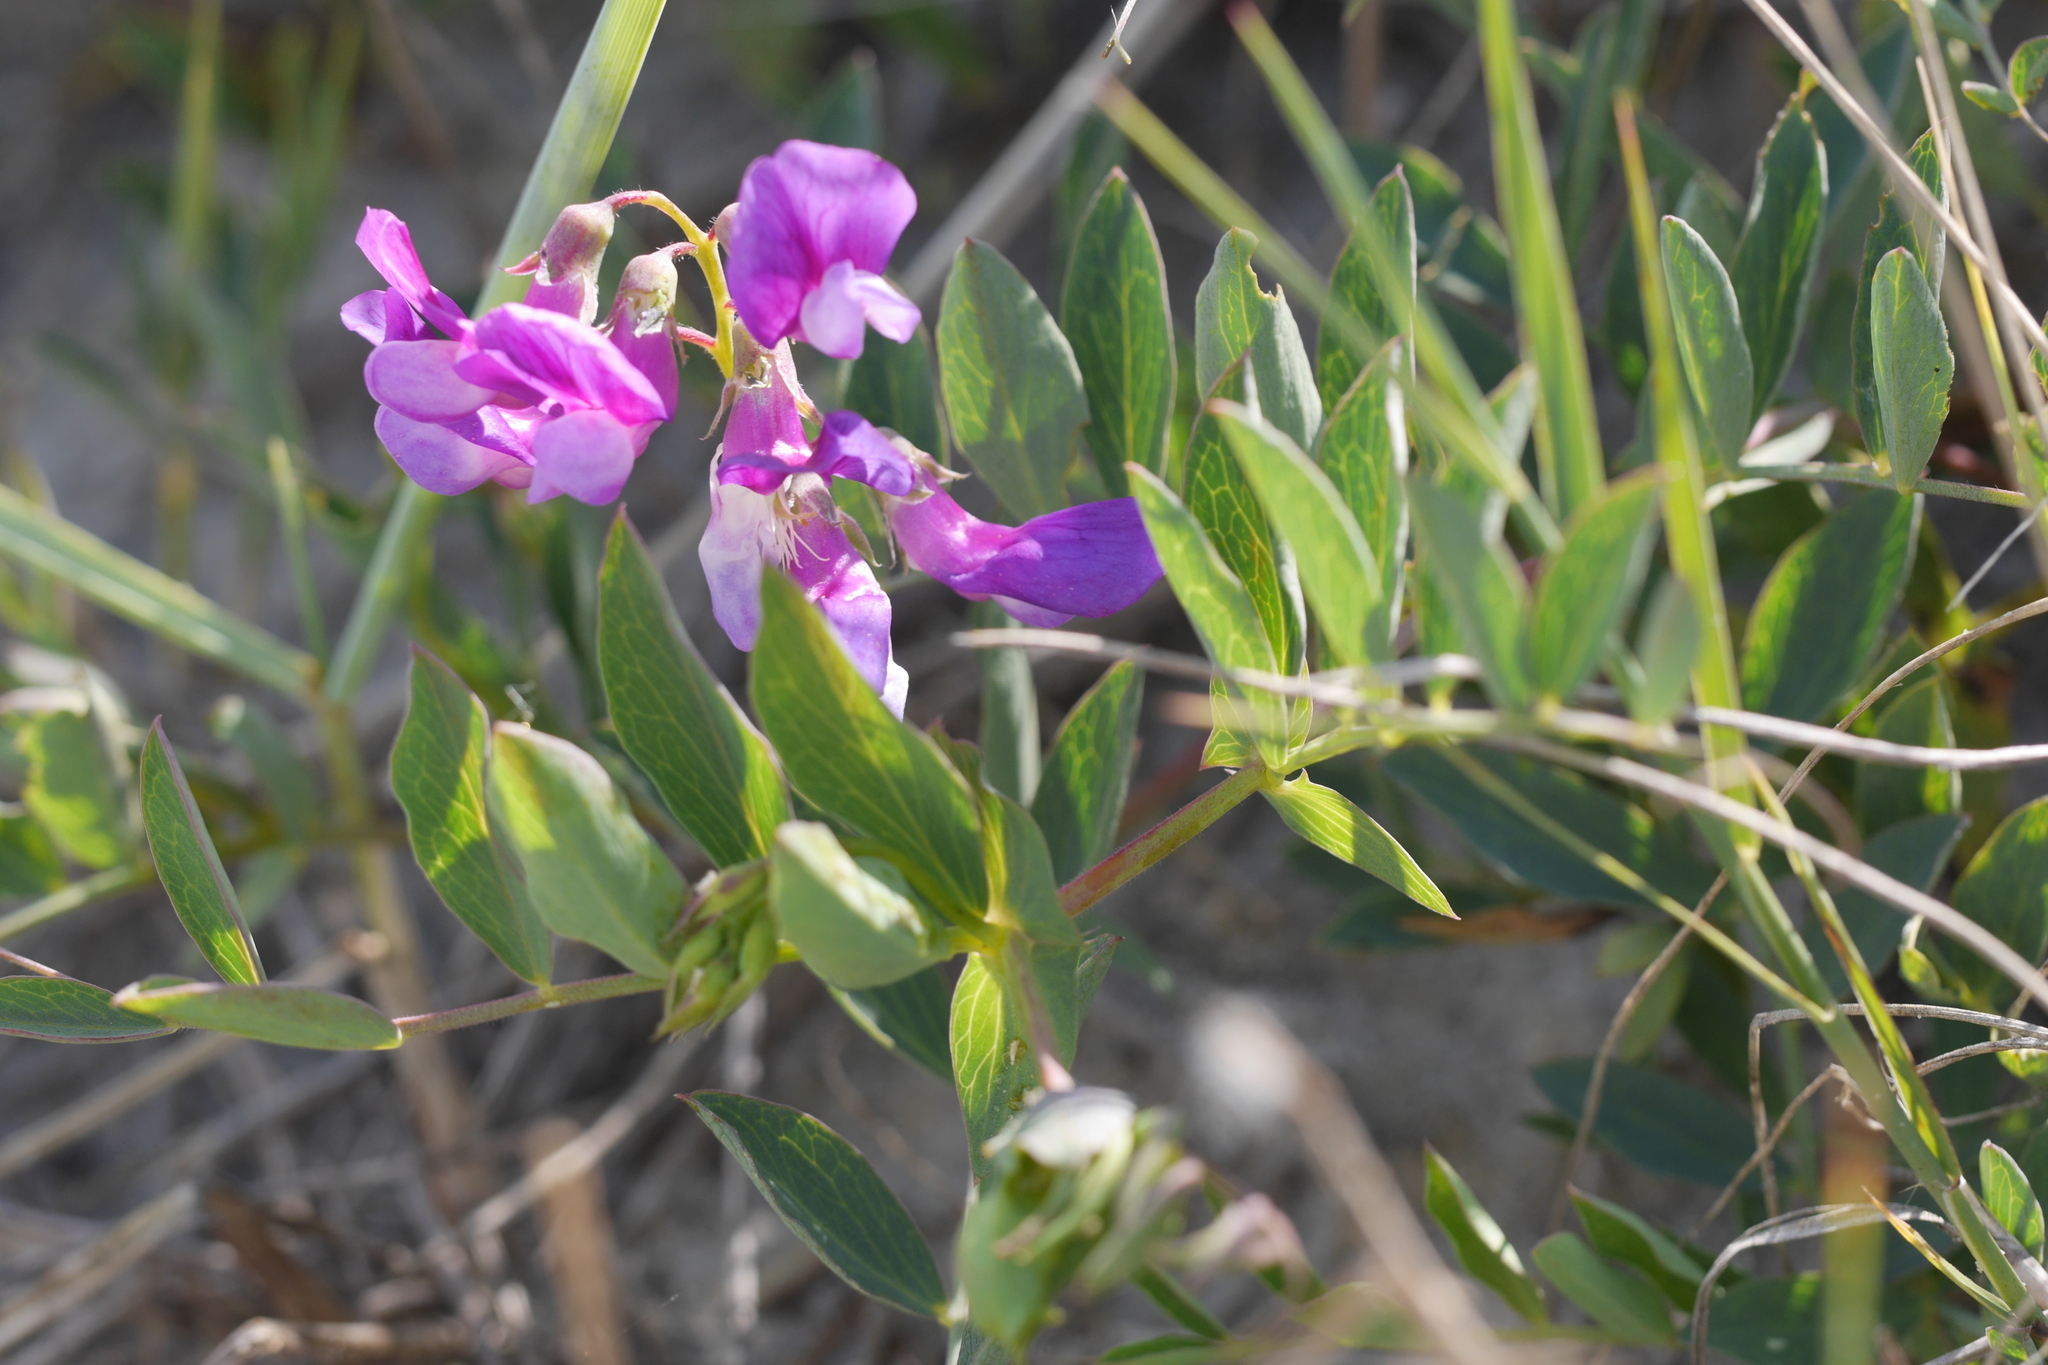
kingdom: Plantae
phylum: Tracheophyta
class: Magnoliopsida
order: Fabales
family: Fabaceae
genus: Lathyrus
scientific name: Lathyrus japonicus
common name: Sea pea
